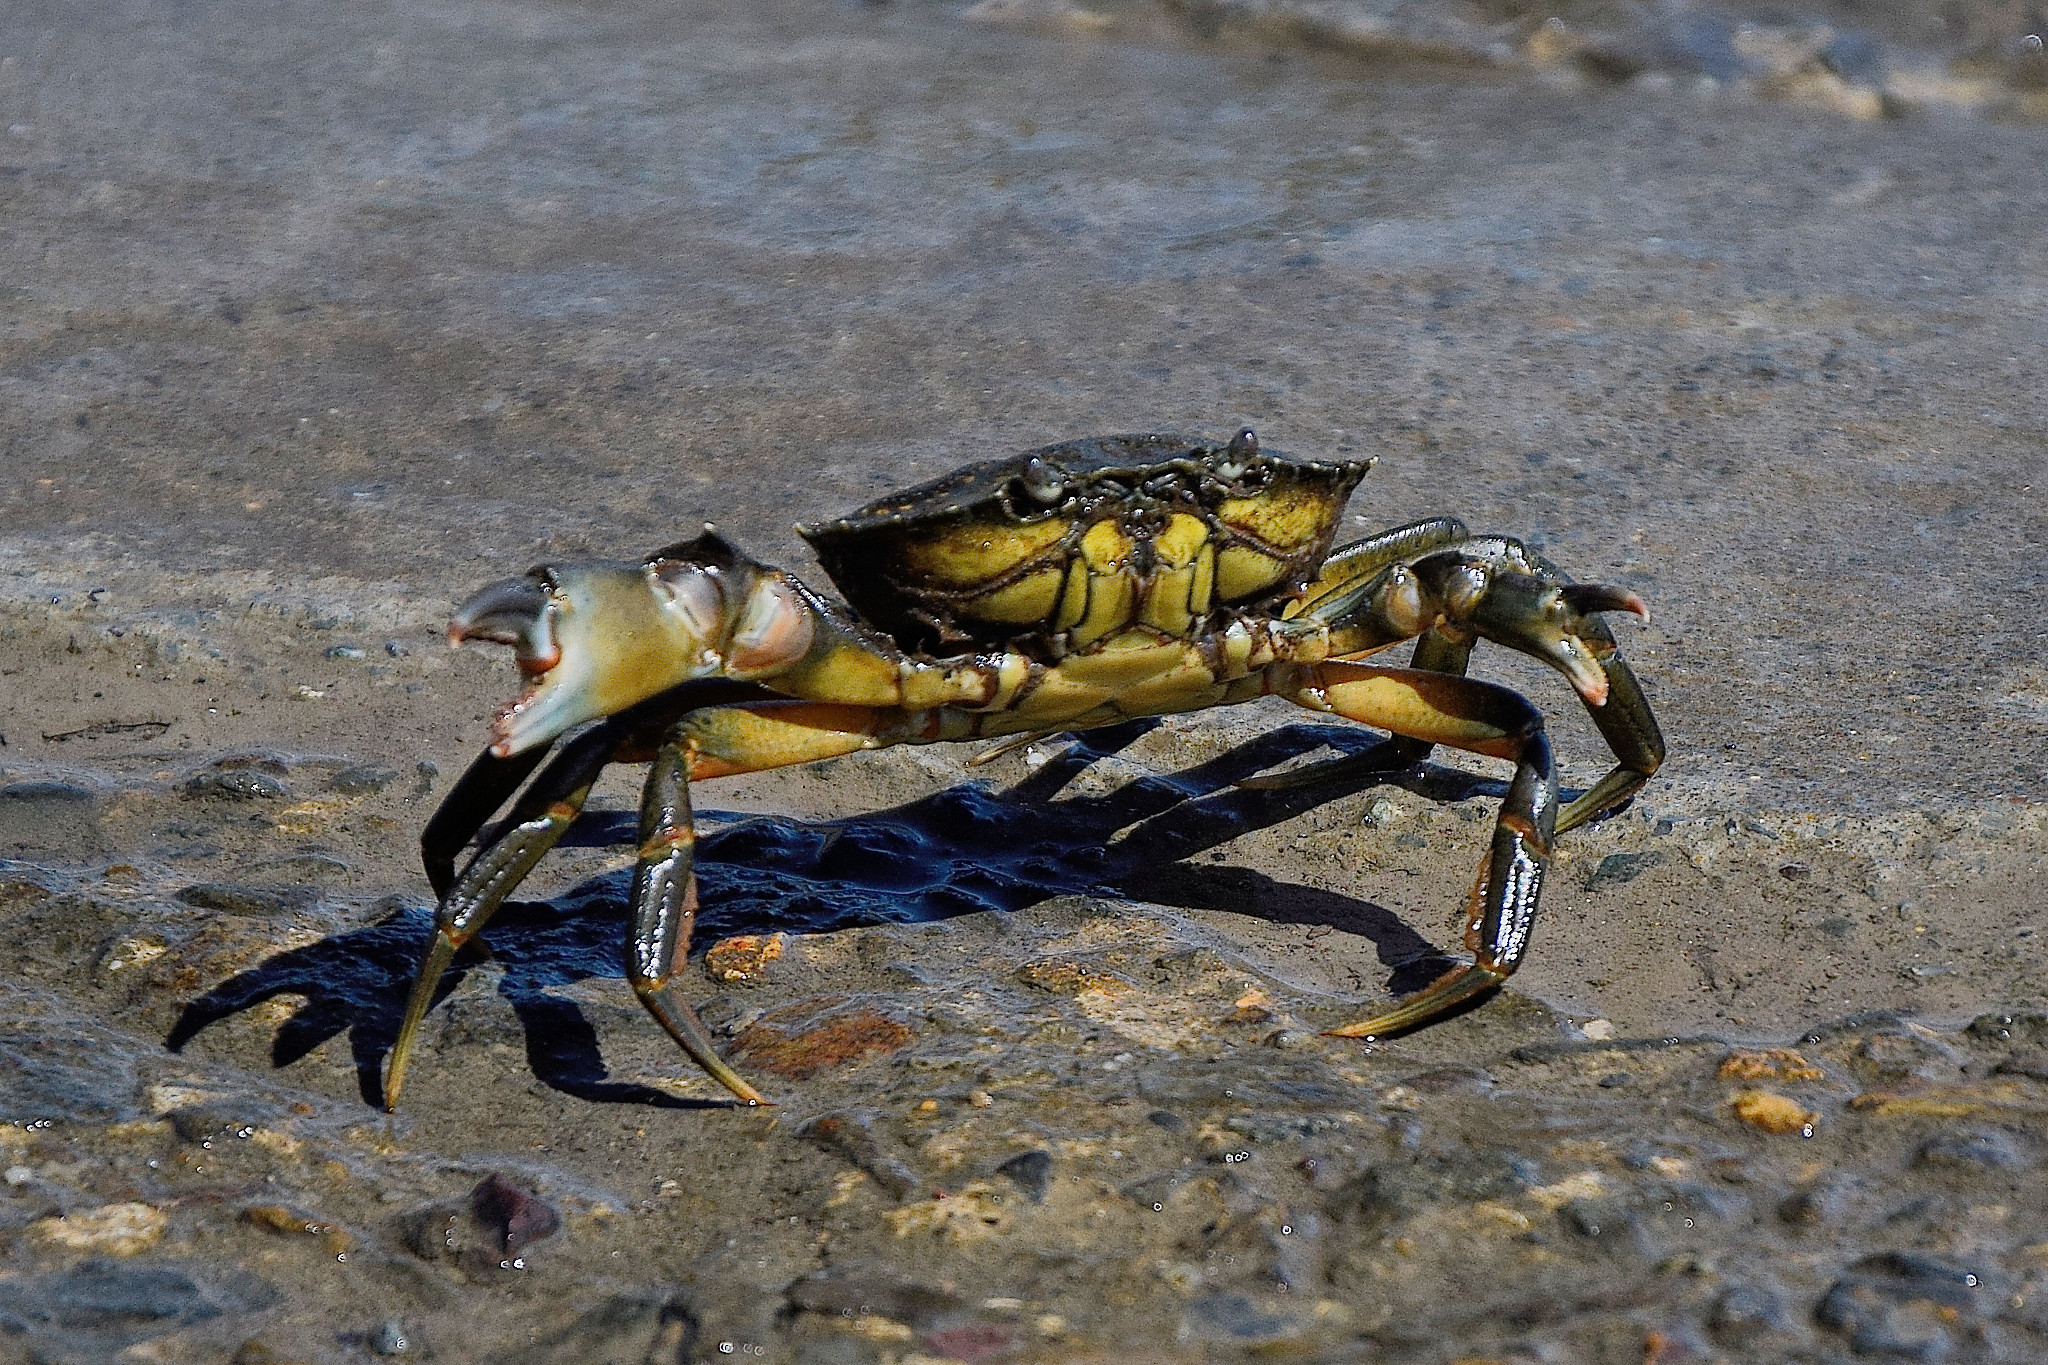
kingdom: Animalia
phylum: Arthropoda
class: Malacostraca
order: Decapoda
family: Carcinidae
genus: Carcinus
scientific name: Carcinus maenas
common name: European green crab
